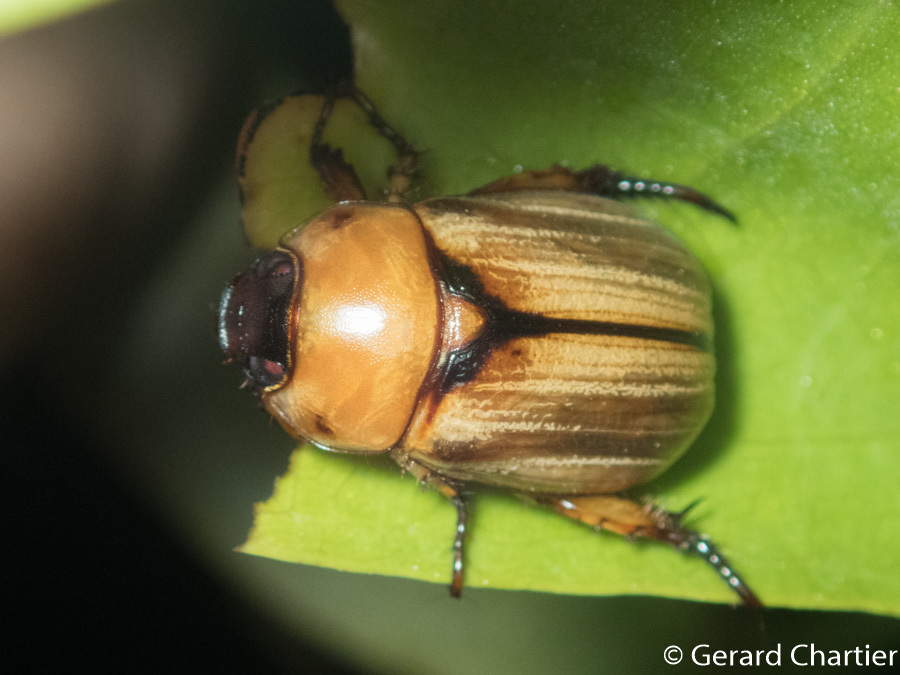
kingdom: Animalia
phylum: Arthropoda
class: Insecta
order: Coleoptera
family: Scarabaeidae
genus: Anomala
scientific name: Anomala pallida
